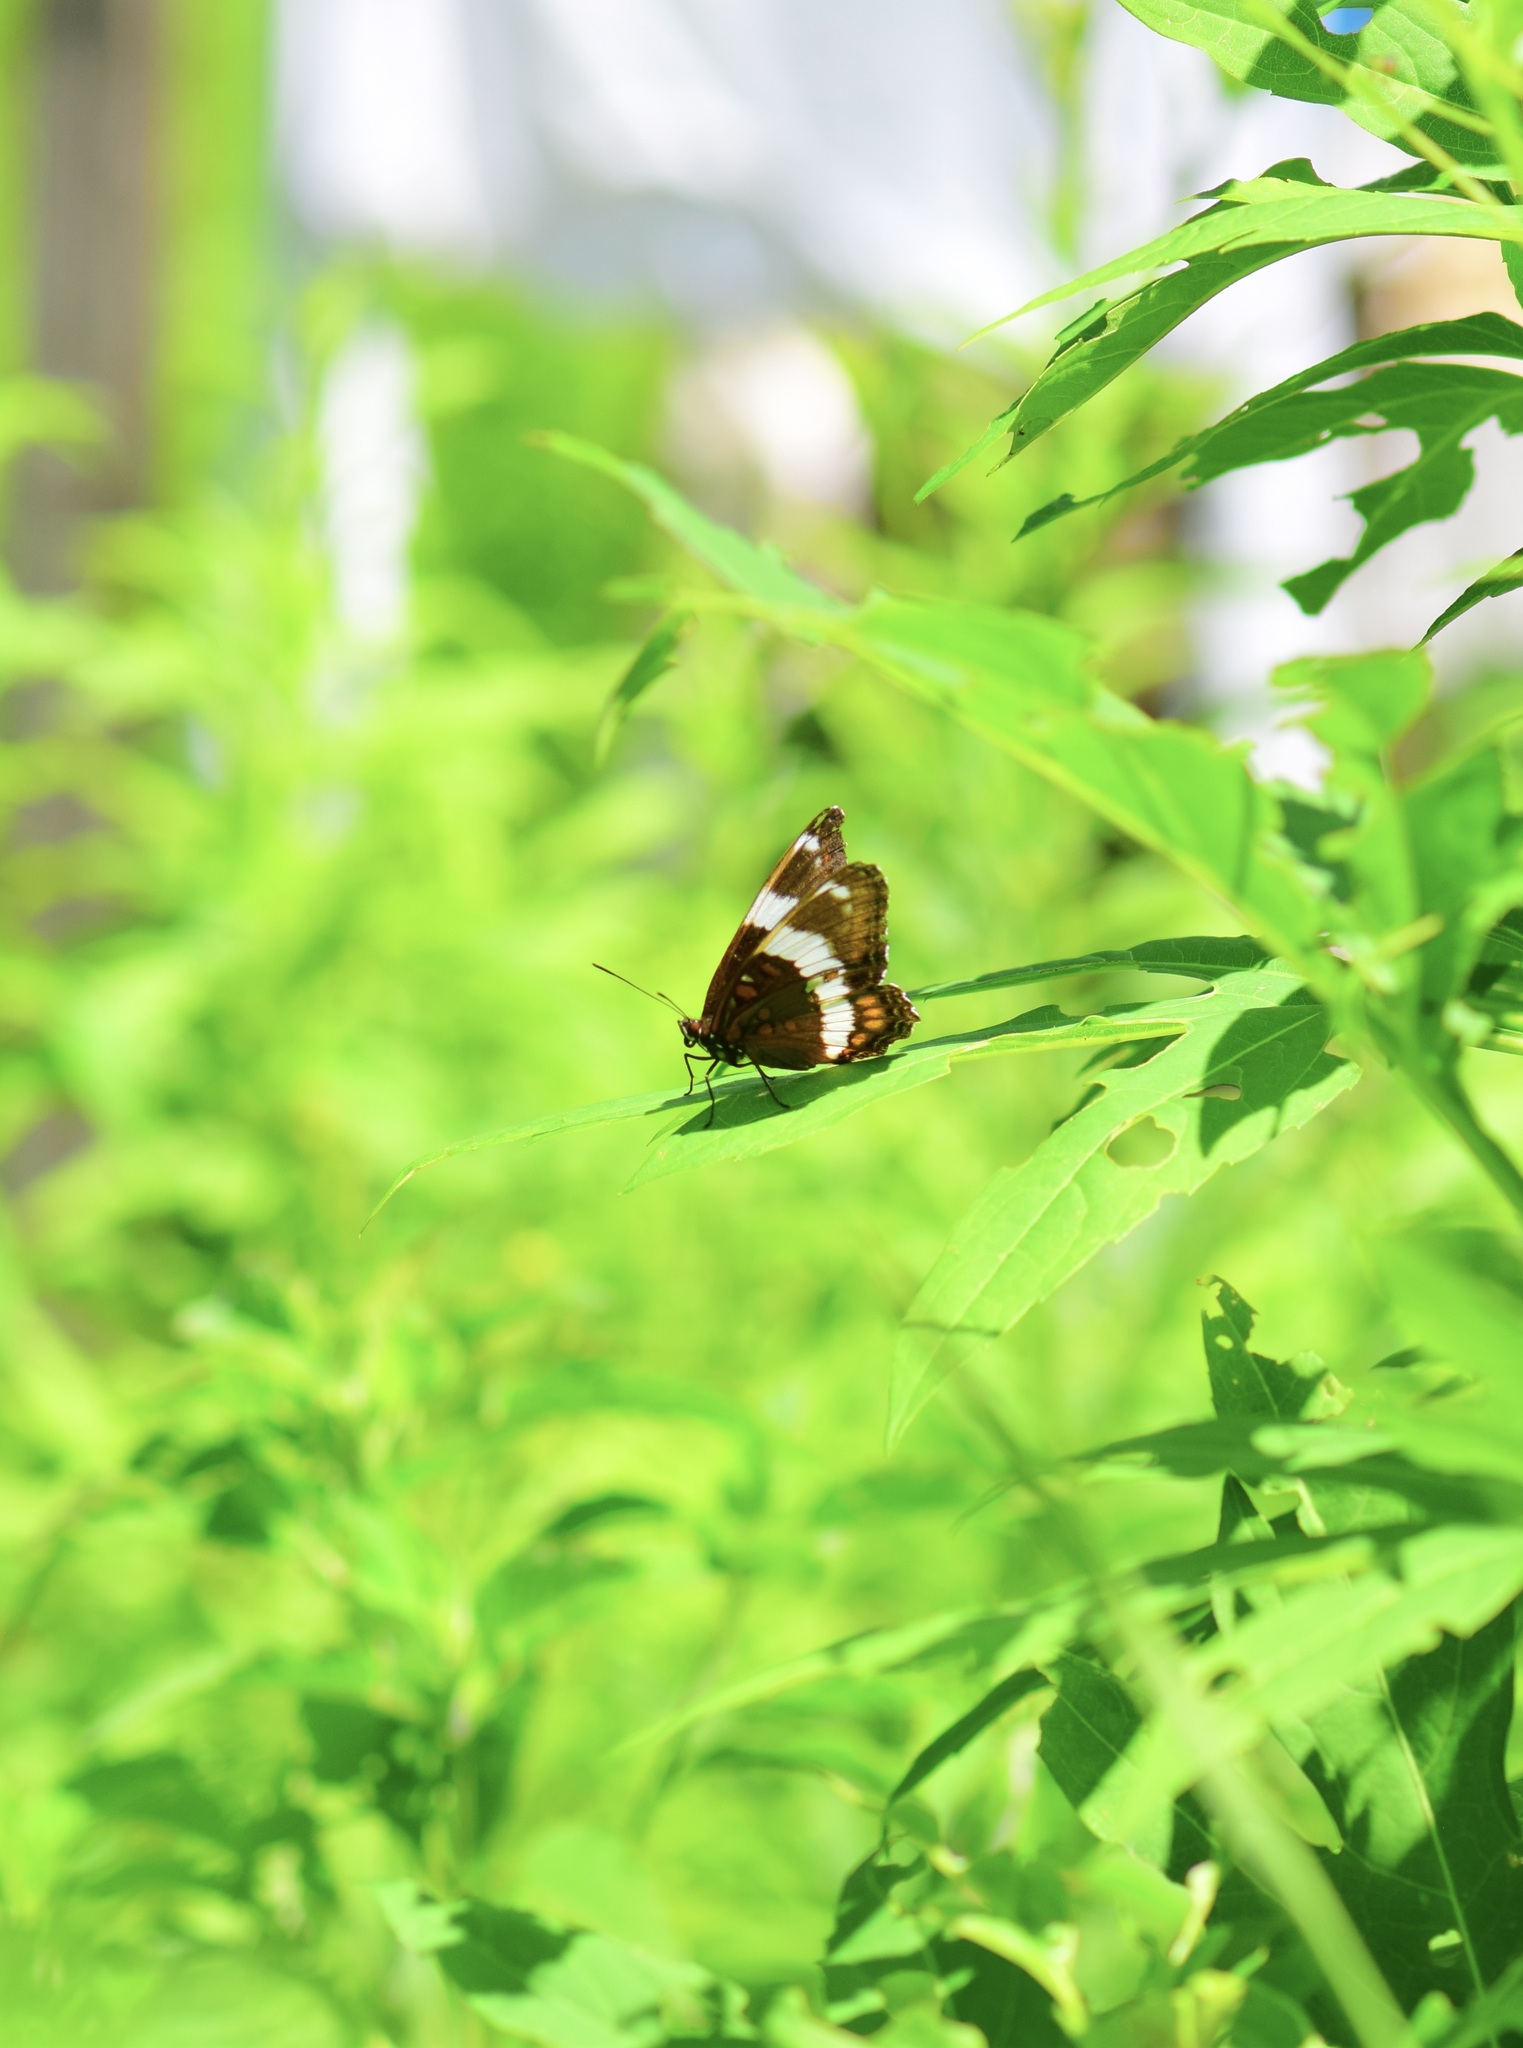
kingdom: Animalia
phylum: Arthropoda
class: Insecta
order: Lepidoptera
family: Nymphalidae
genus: Limenitis
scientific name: Limenitis arthemis
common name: Red-spotted admiral
